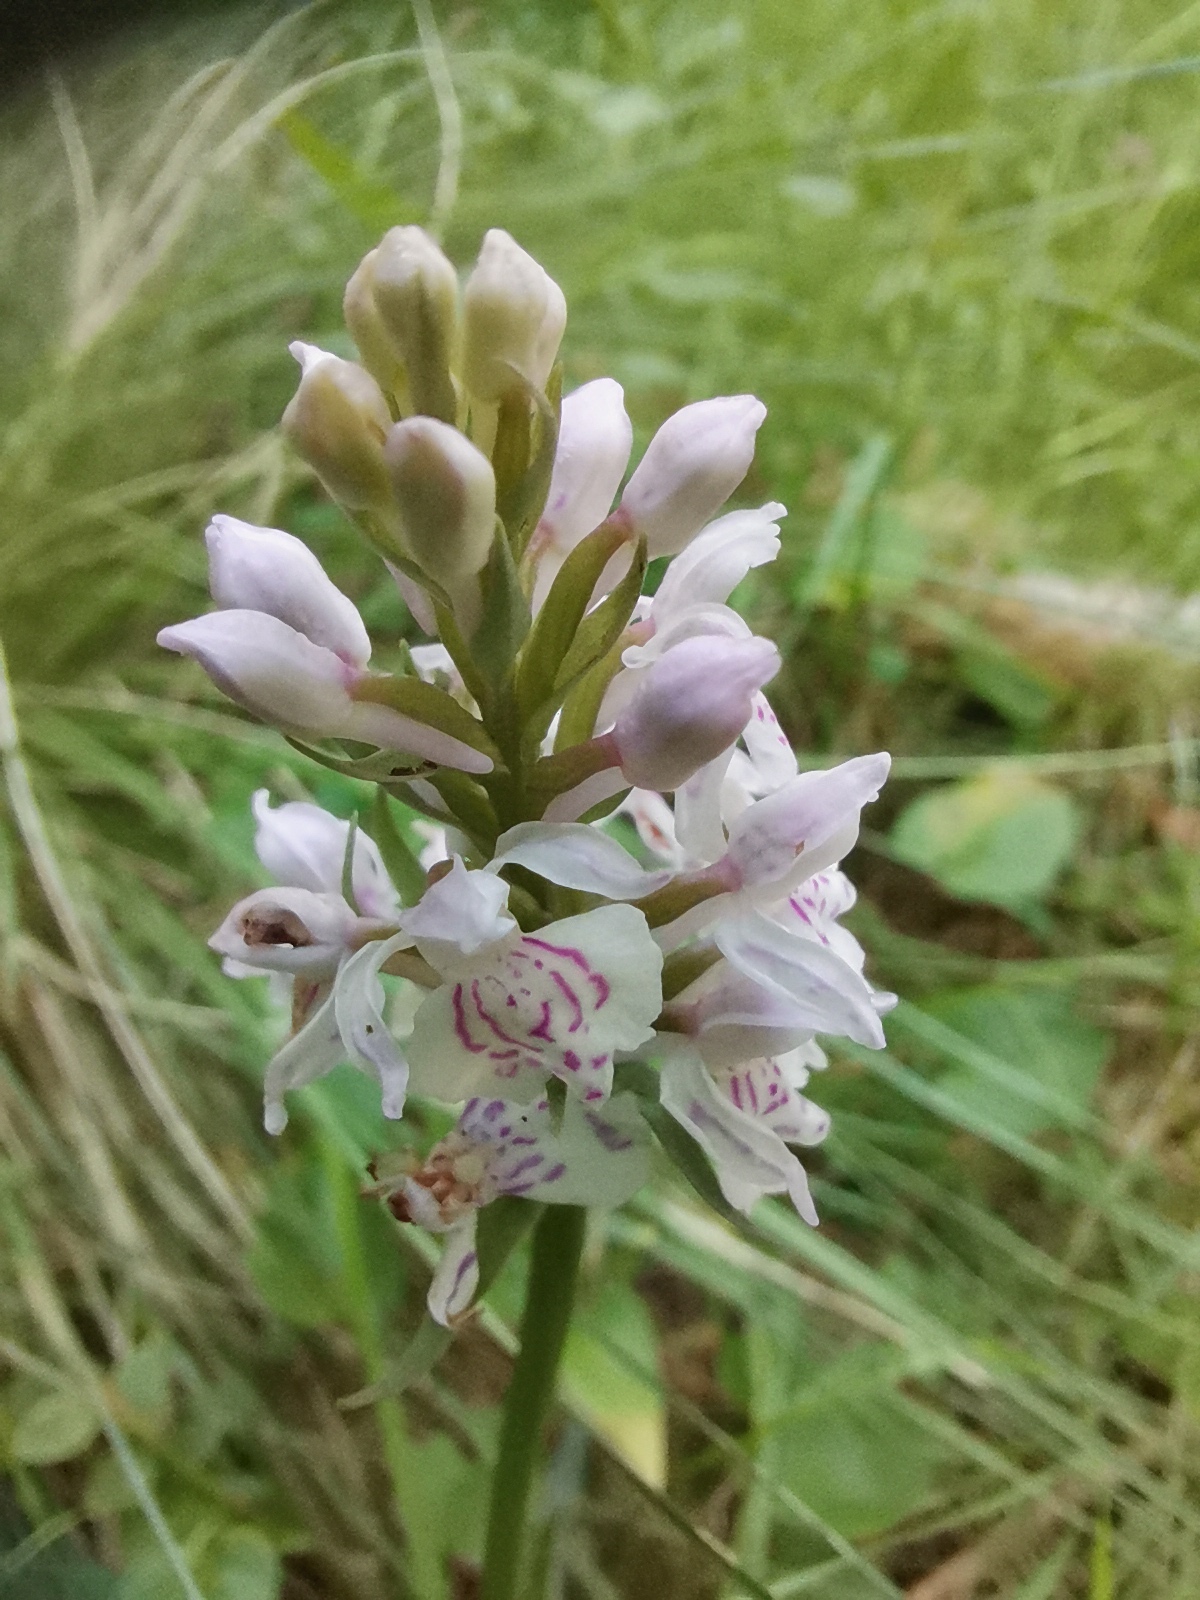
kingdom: Plantae
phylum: Tracheophyta
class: Liliopsida
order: Asparagales
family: Orchidaceae
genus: Dactylorhiza
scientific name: Dactylorhiza maculata
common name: Heath spotted-orchid
